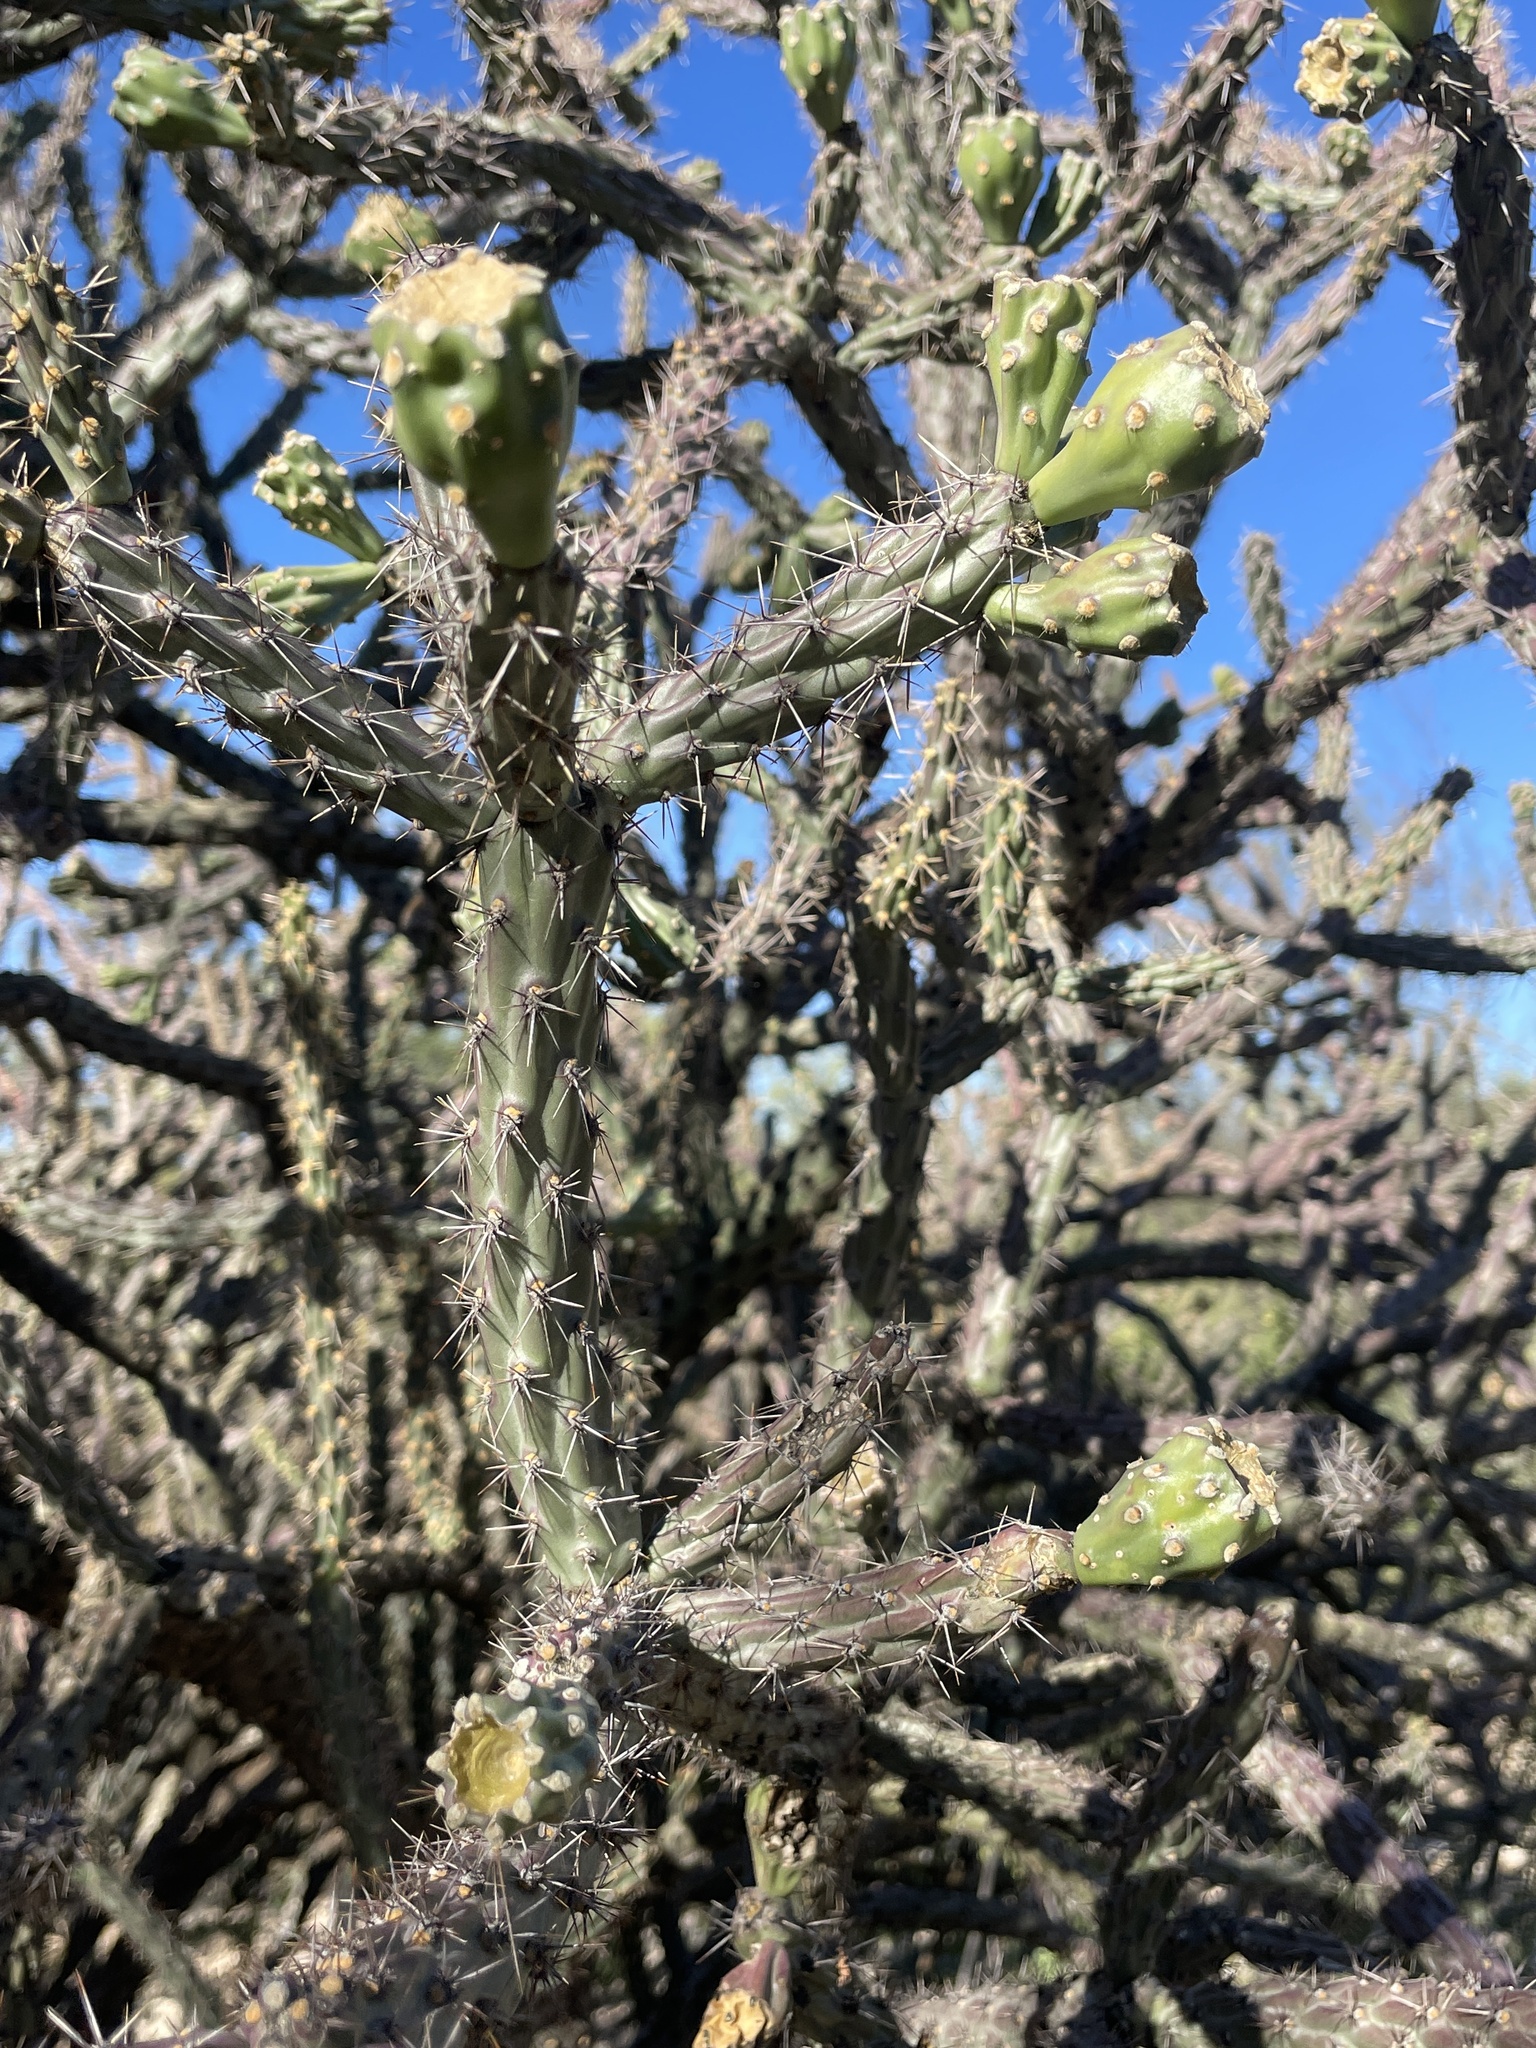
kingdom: Plantae
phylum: Tracheophyta
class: Magnoliopsida
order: Caryophyllales
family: Cactaceae
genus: Cylindropuntia
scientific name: Cylindropuntia thurberi
